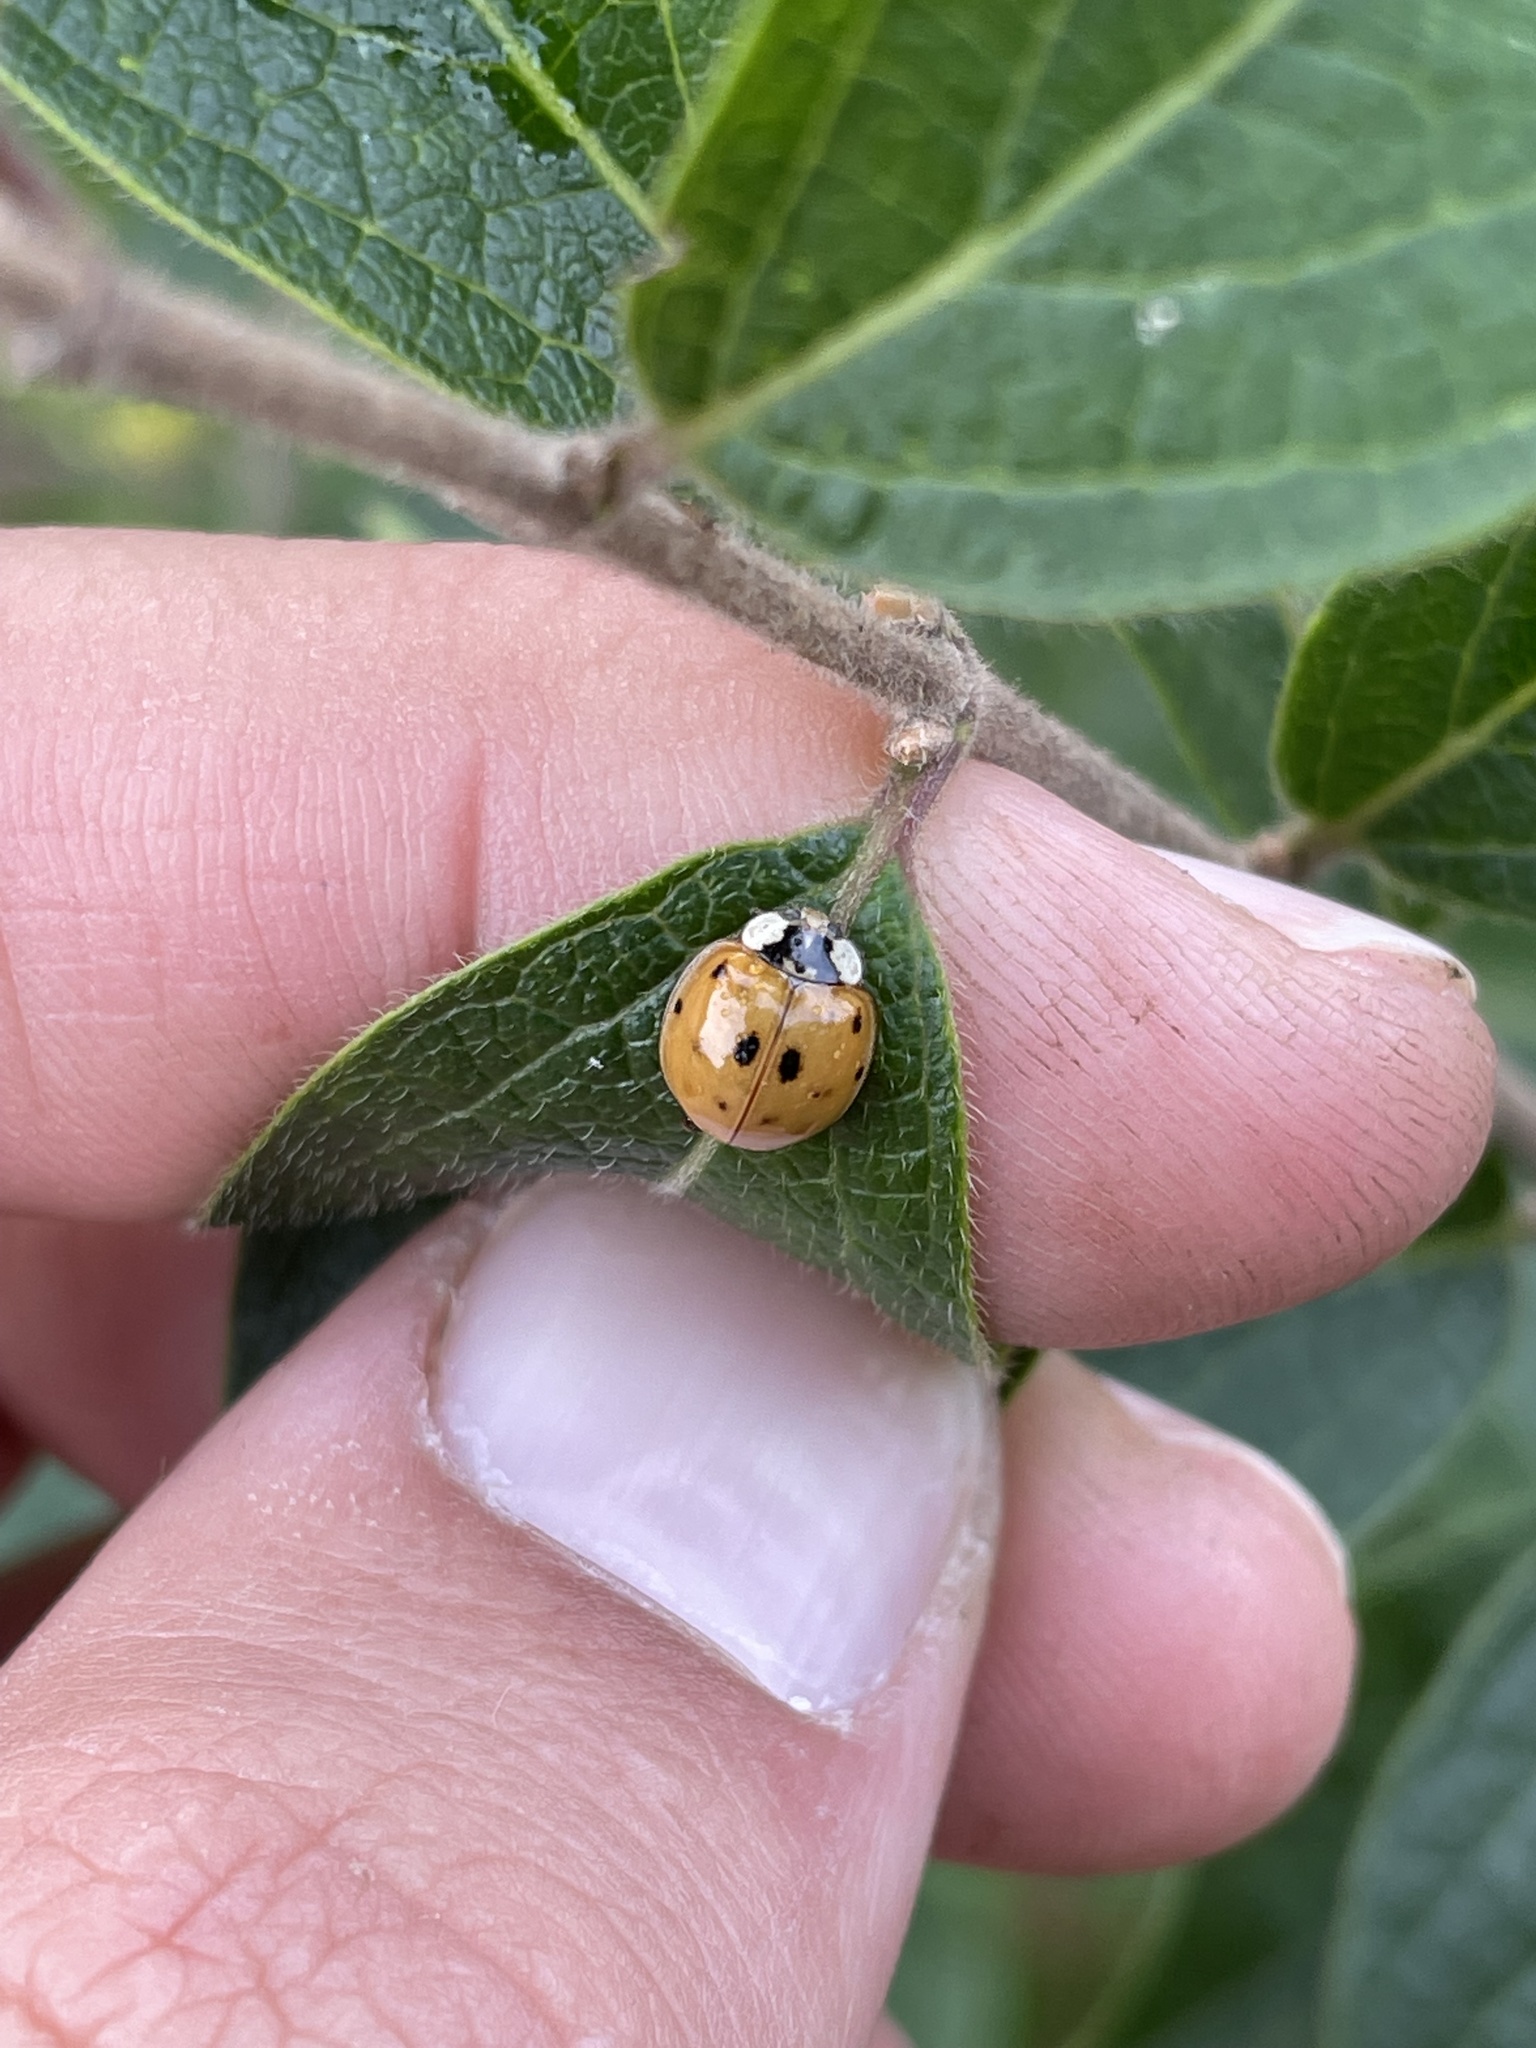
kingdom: Animalia
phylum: Arthropoda
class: Insecta
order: Coleoptera
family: Coccinellidae
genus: Harmonia
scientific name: Harmonia axyridis
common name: Harlequin ladybird
